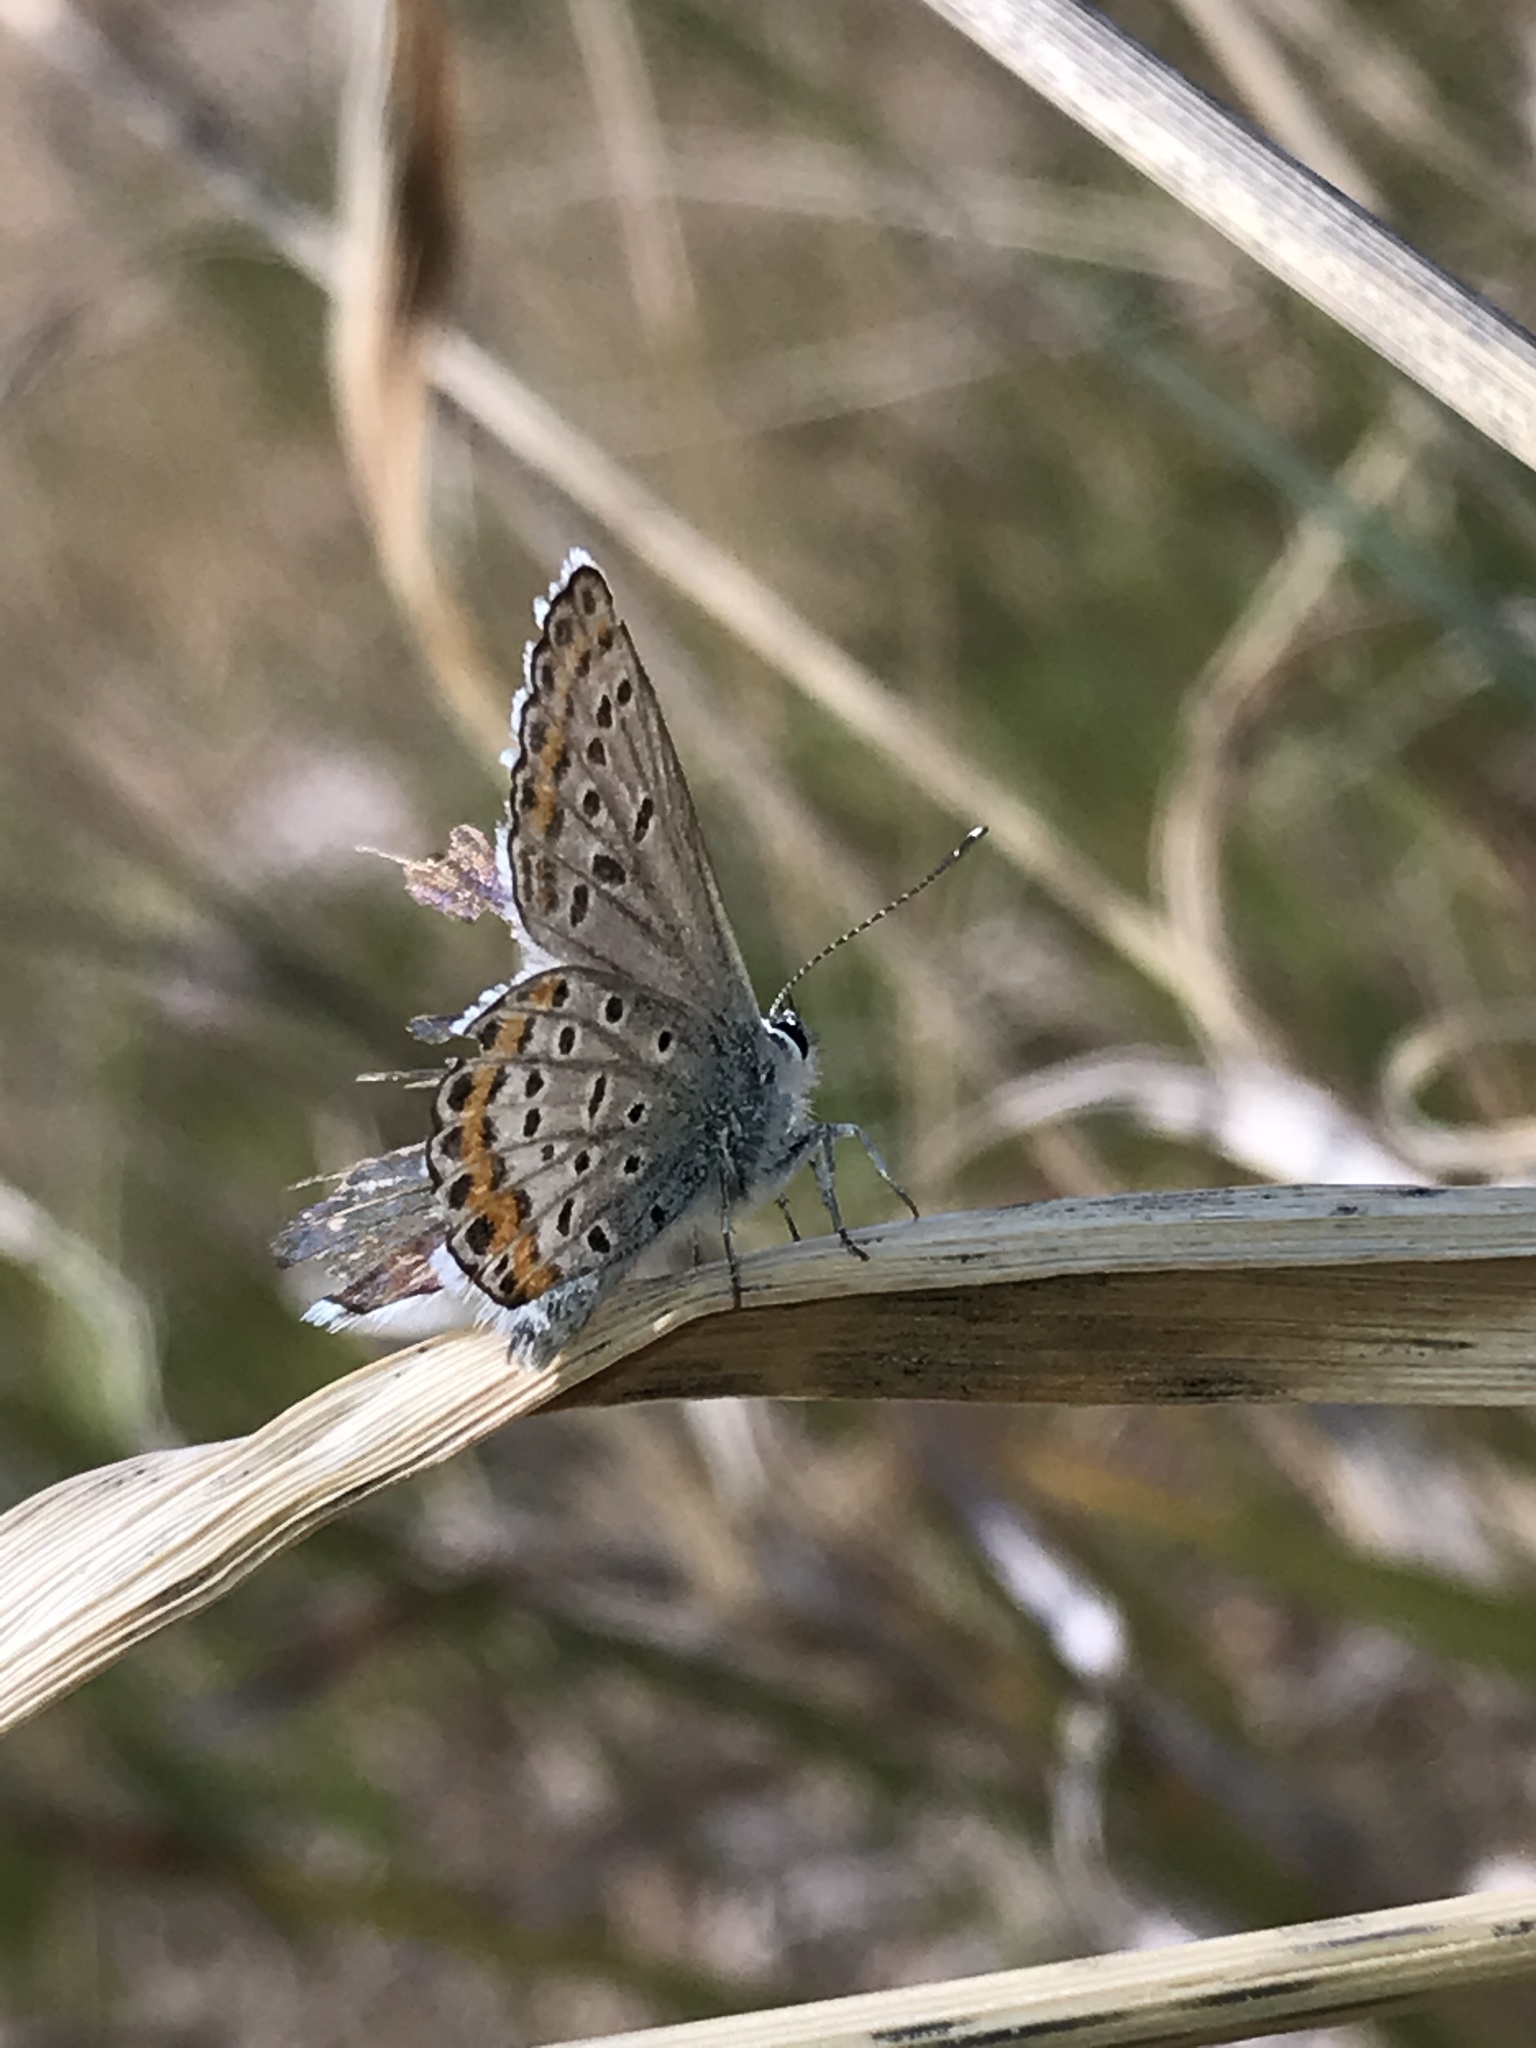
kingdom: Animalia
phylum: Arthropoda
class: Insecta
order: Lepidoptera
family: Lycaenidae
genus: Lycaeides
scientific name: Lycaeides melissa
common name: Melissa blue
